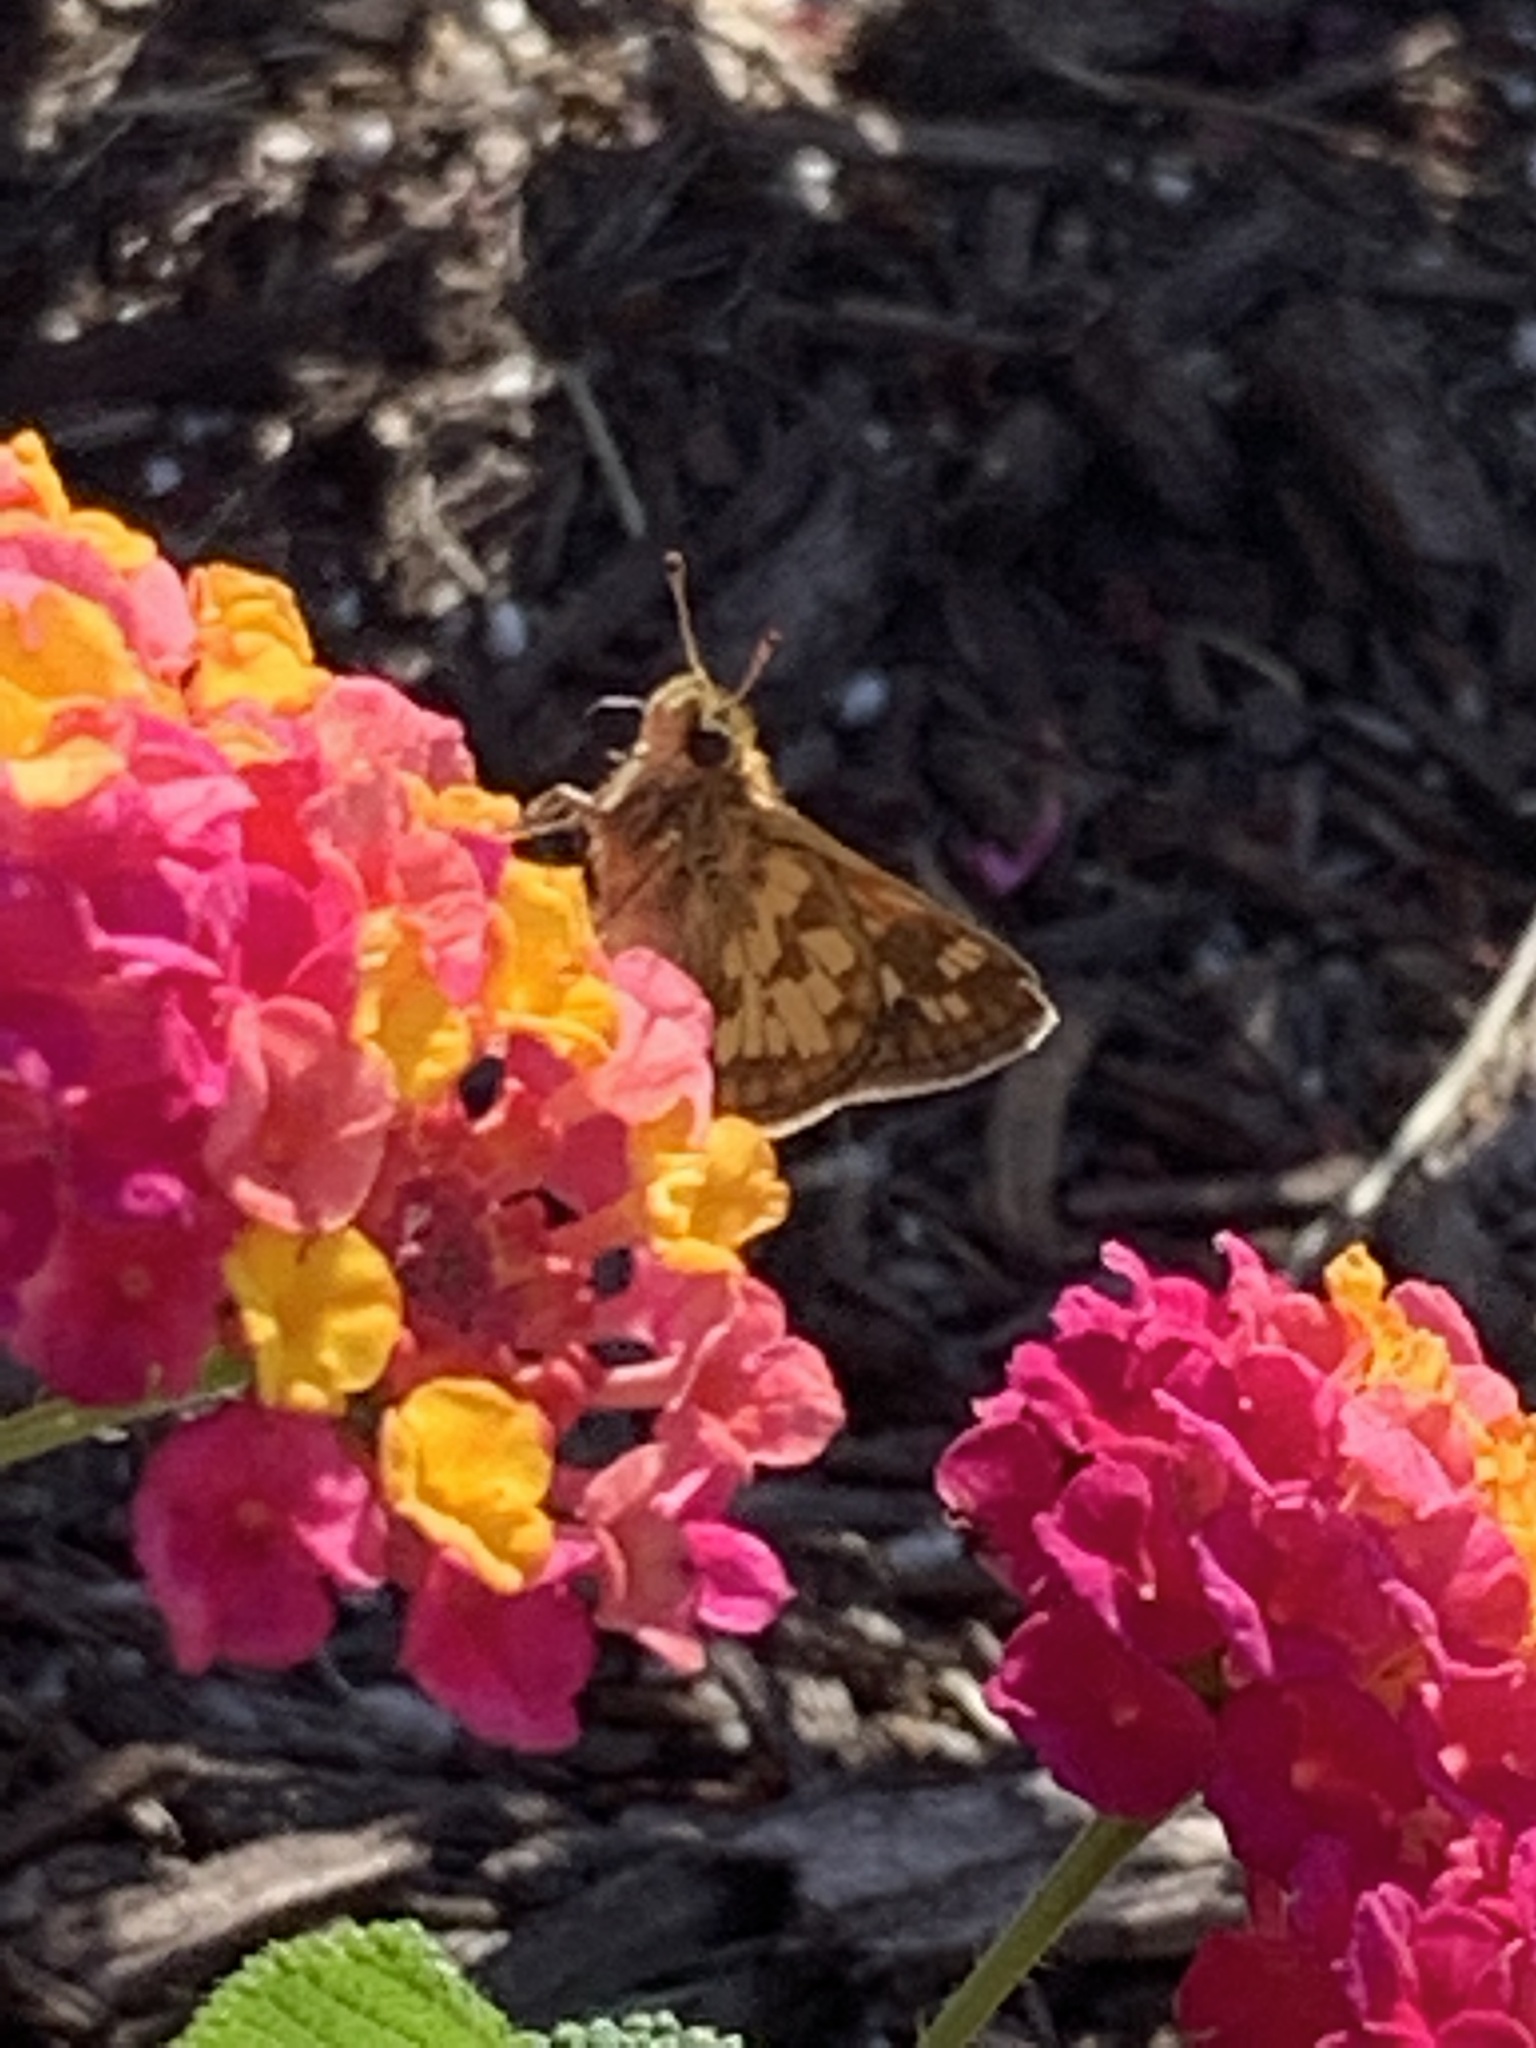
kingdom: Animalia
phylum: Arthropoda
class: Insecta
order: Lepidoptera
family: Hesperiidae
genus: Polites
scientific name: Polites coras
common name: Peck's skipper
